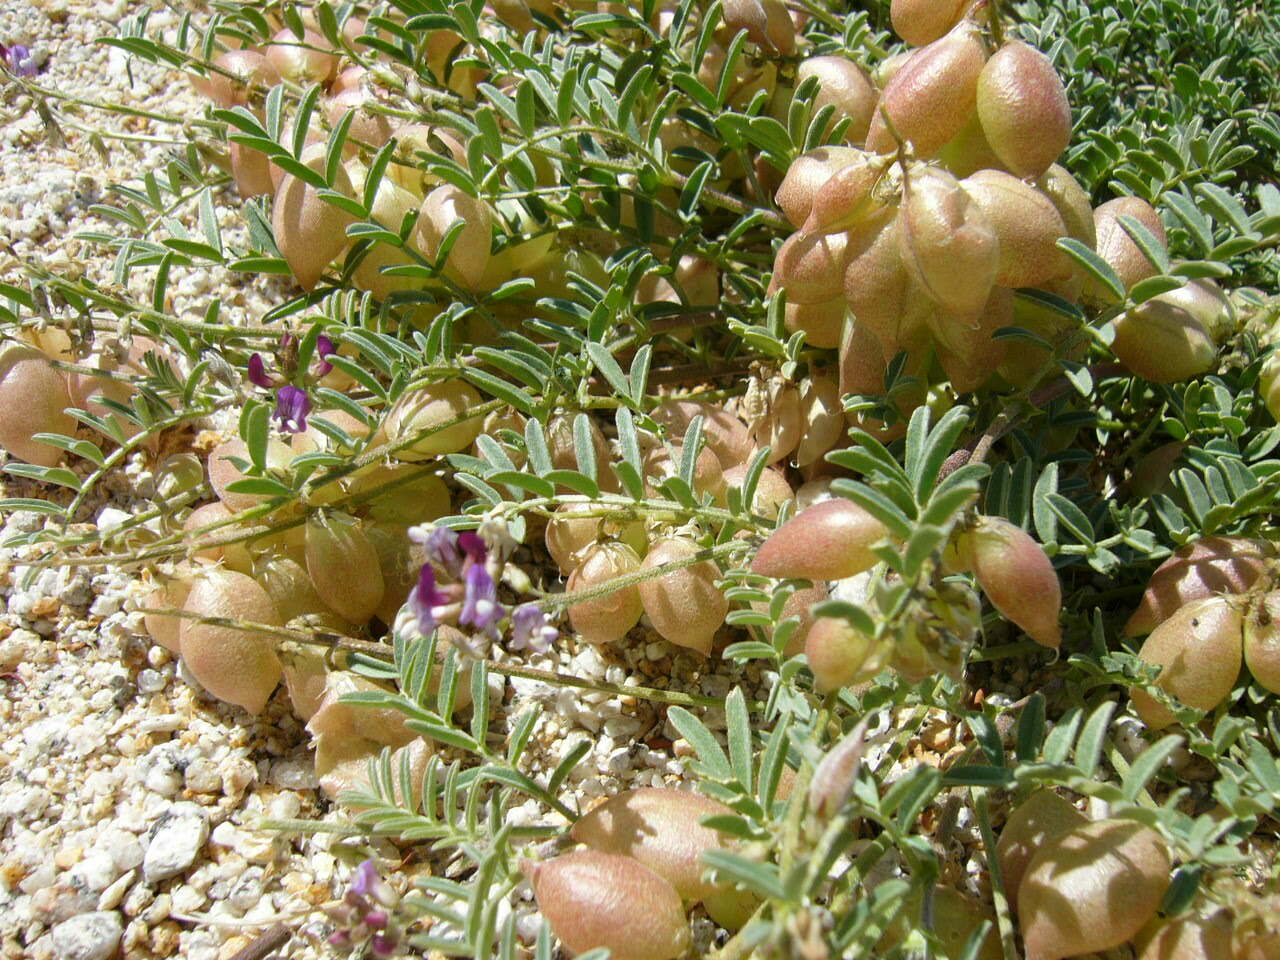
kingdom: Plantae
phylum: Tracheophyta
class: Magnoliopsida
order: Fabales
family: Fabaceae
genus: Astragalus
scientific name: Astragalus nutans
